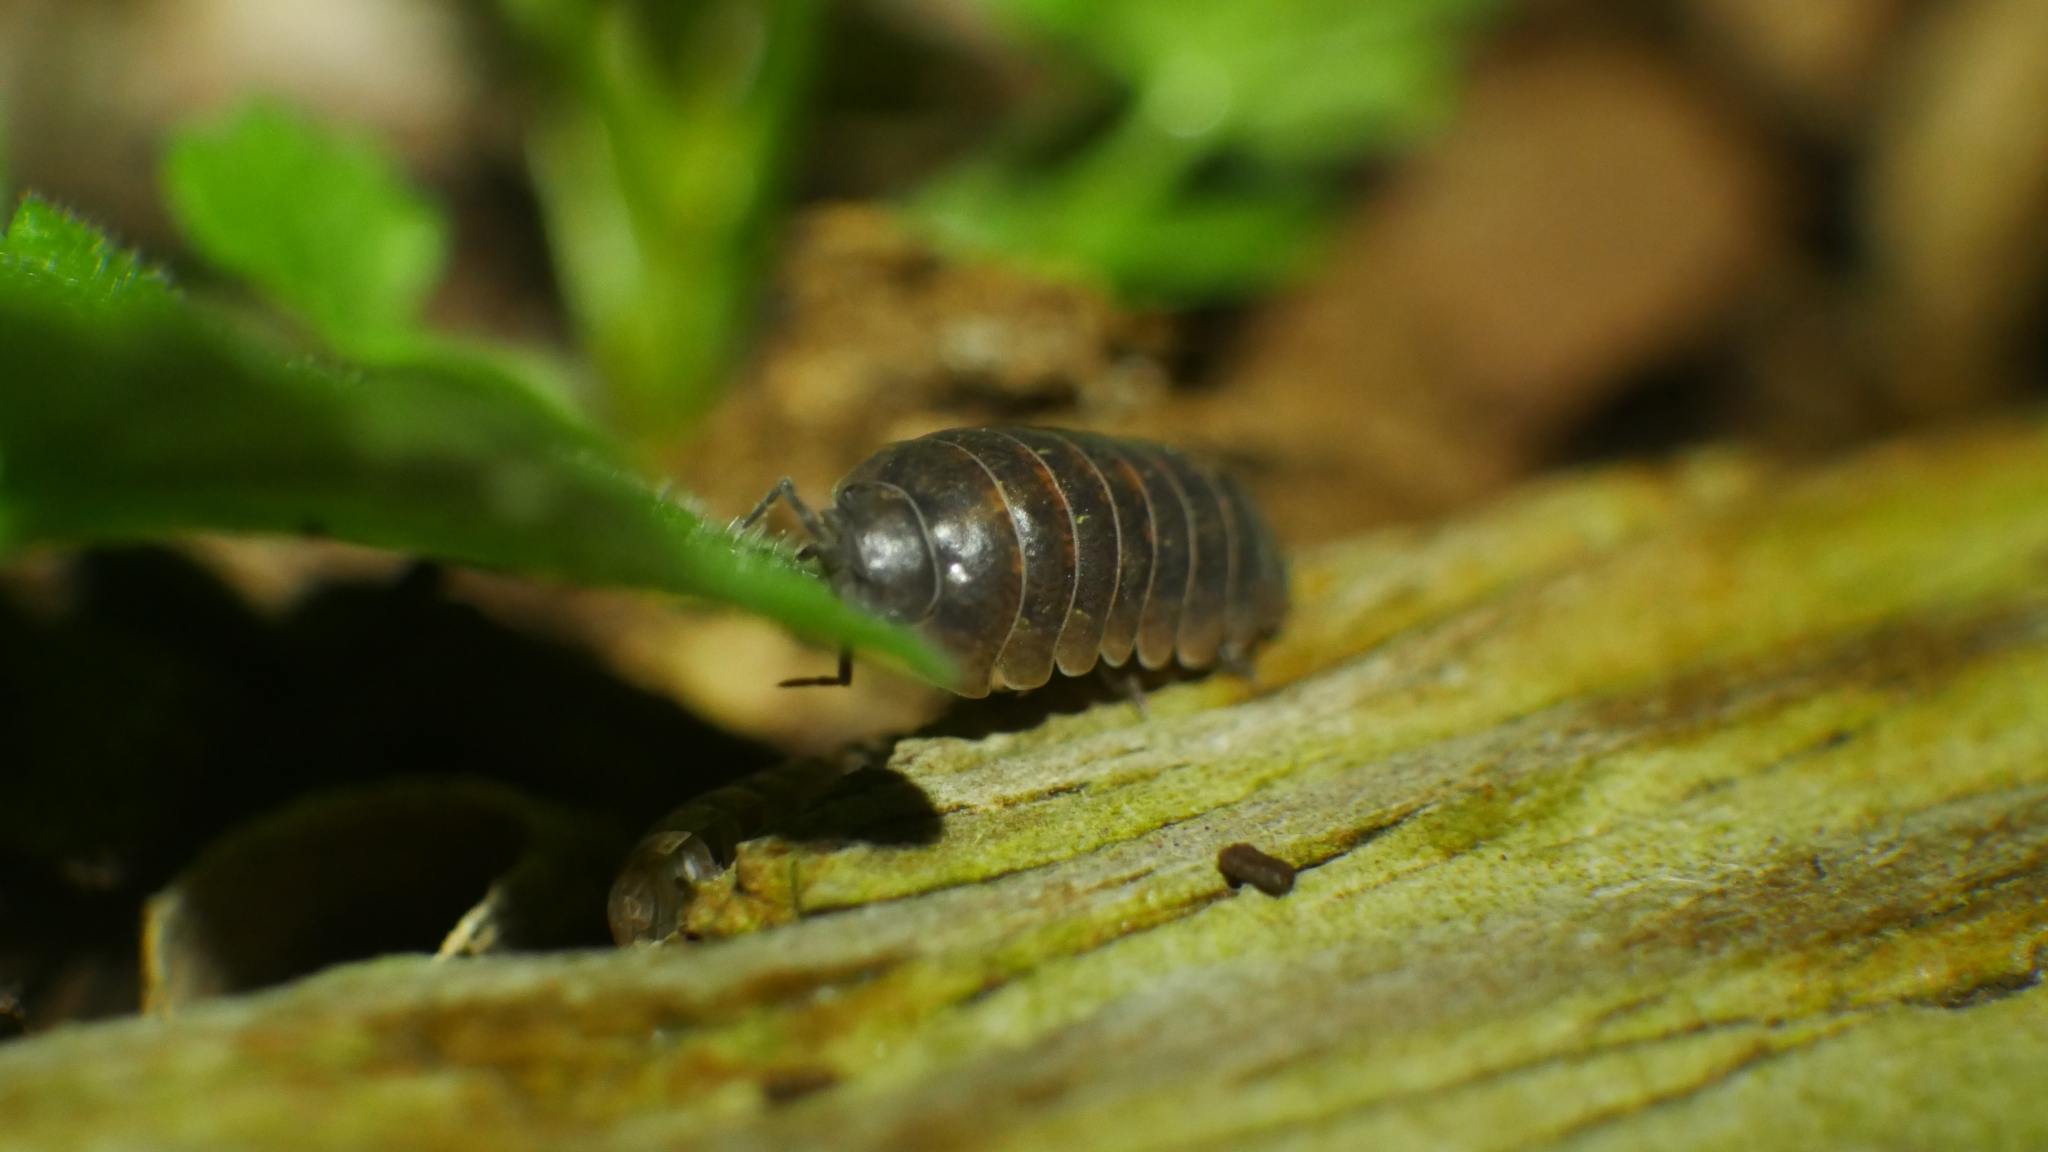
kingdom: Animalia
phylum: Arthropoda
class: Malacostraca
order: Isopoda
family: Armadillidiidae
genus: Armadillidium
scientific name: Armadillidium vulgare
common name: Common pill woodlouse
